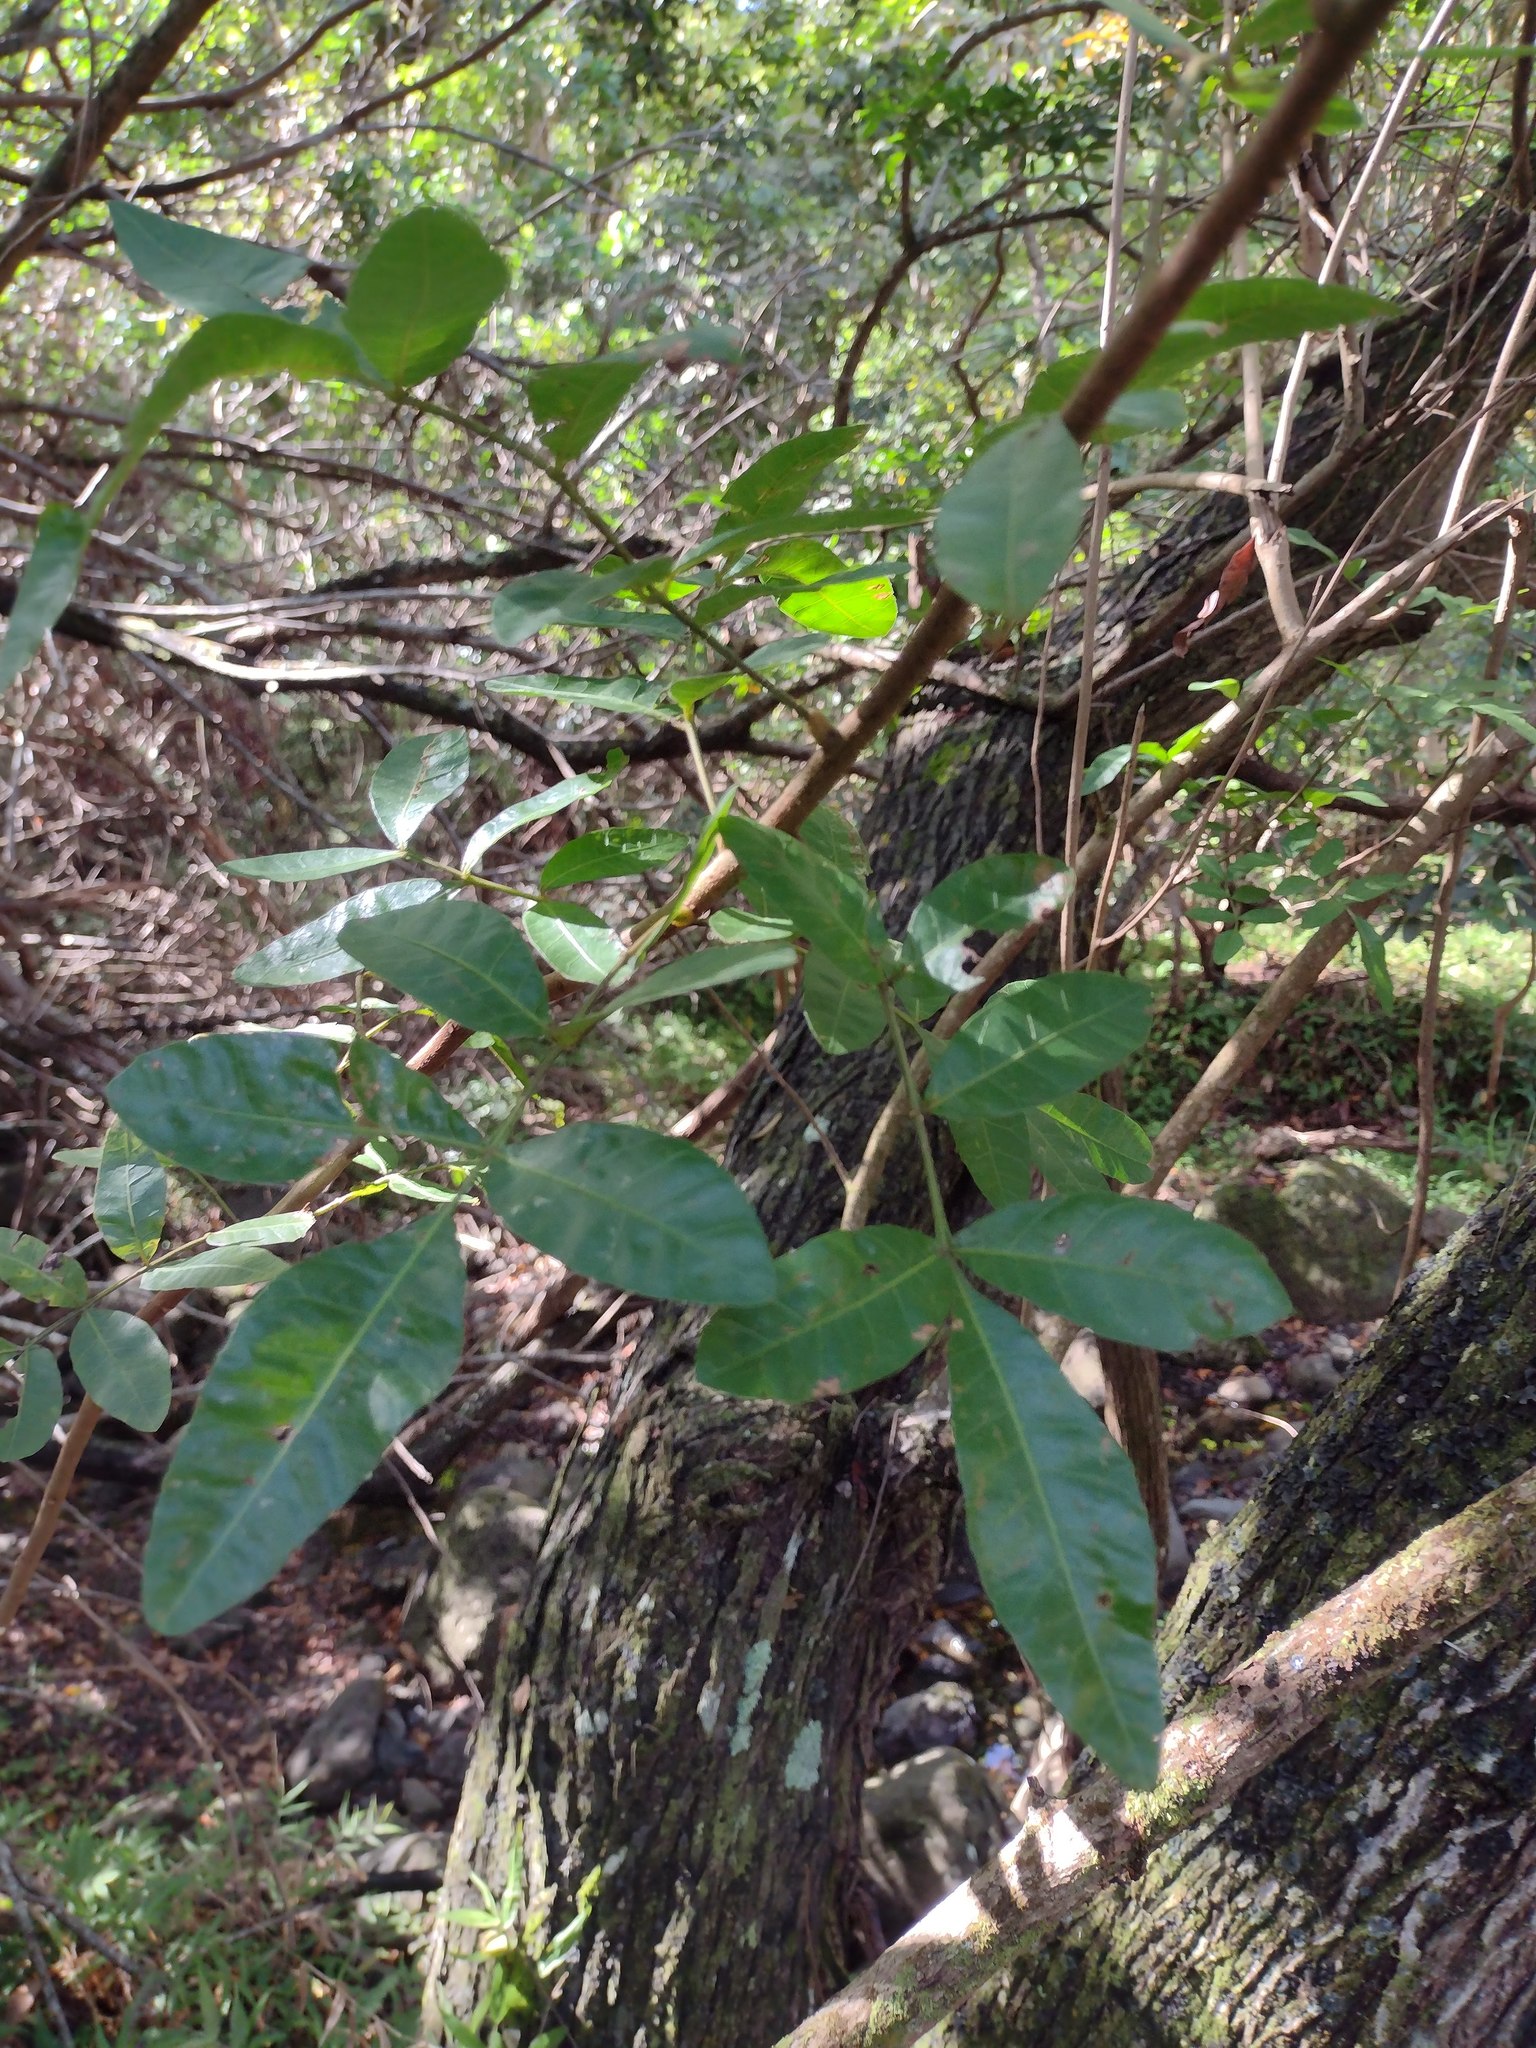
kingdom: Plantae
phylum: Tracheophyta
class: Magnoliopsida
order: Sapindales
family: Anacardiaceae
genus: Schinus
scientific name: Schinus terebinthifolia
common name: Brazilian peppertree
